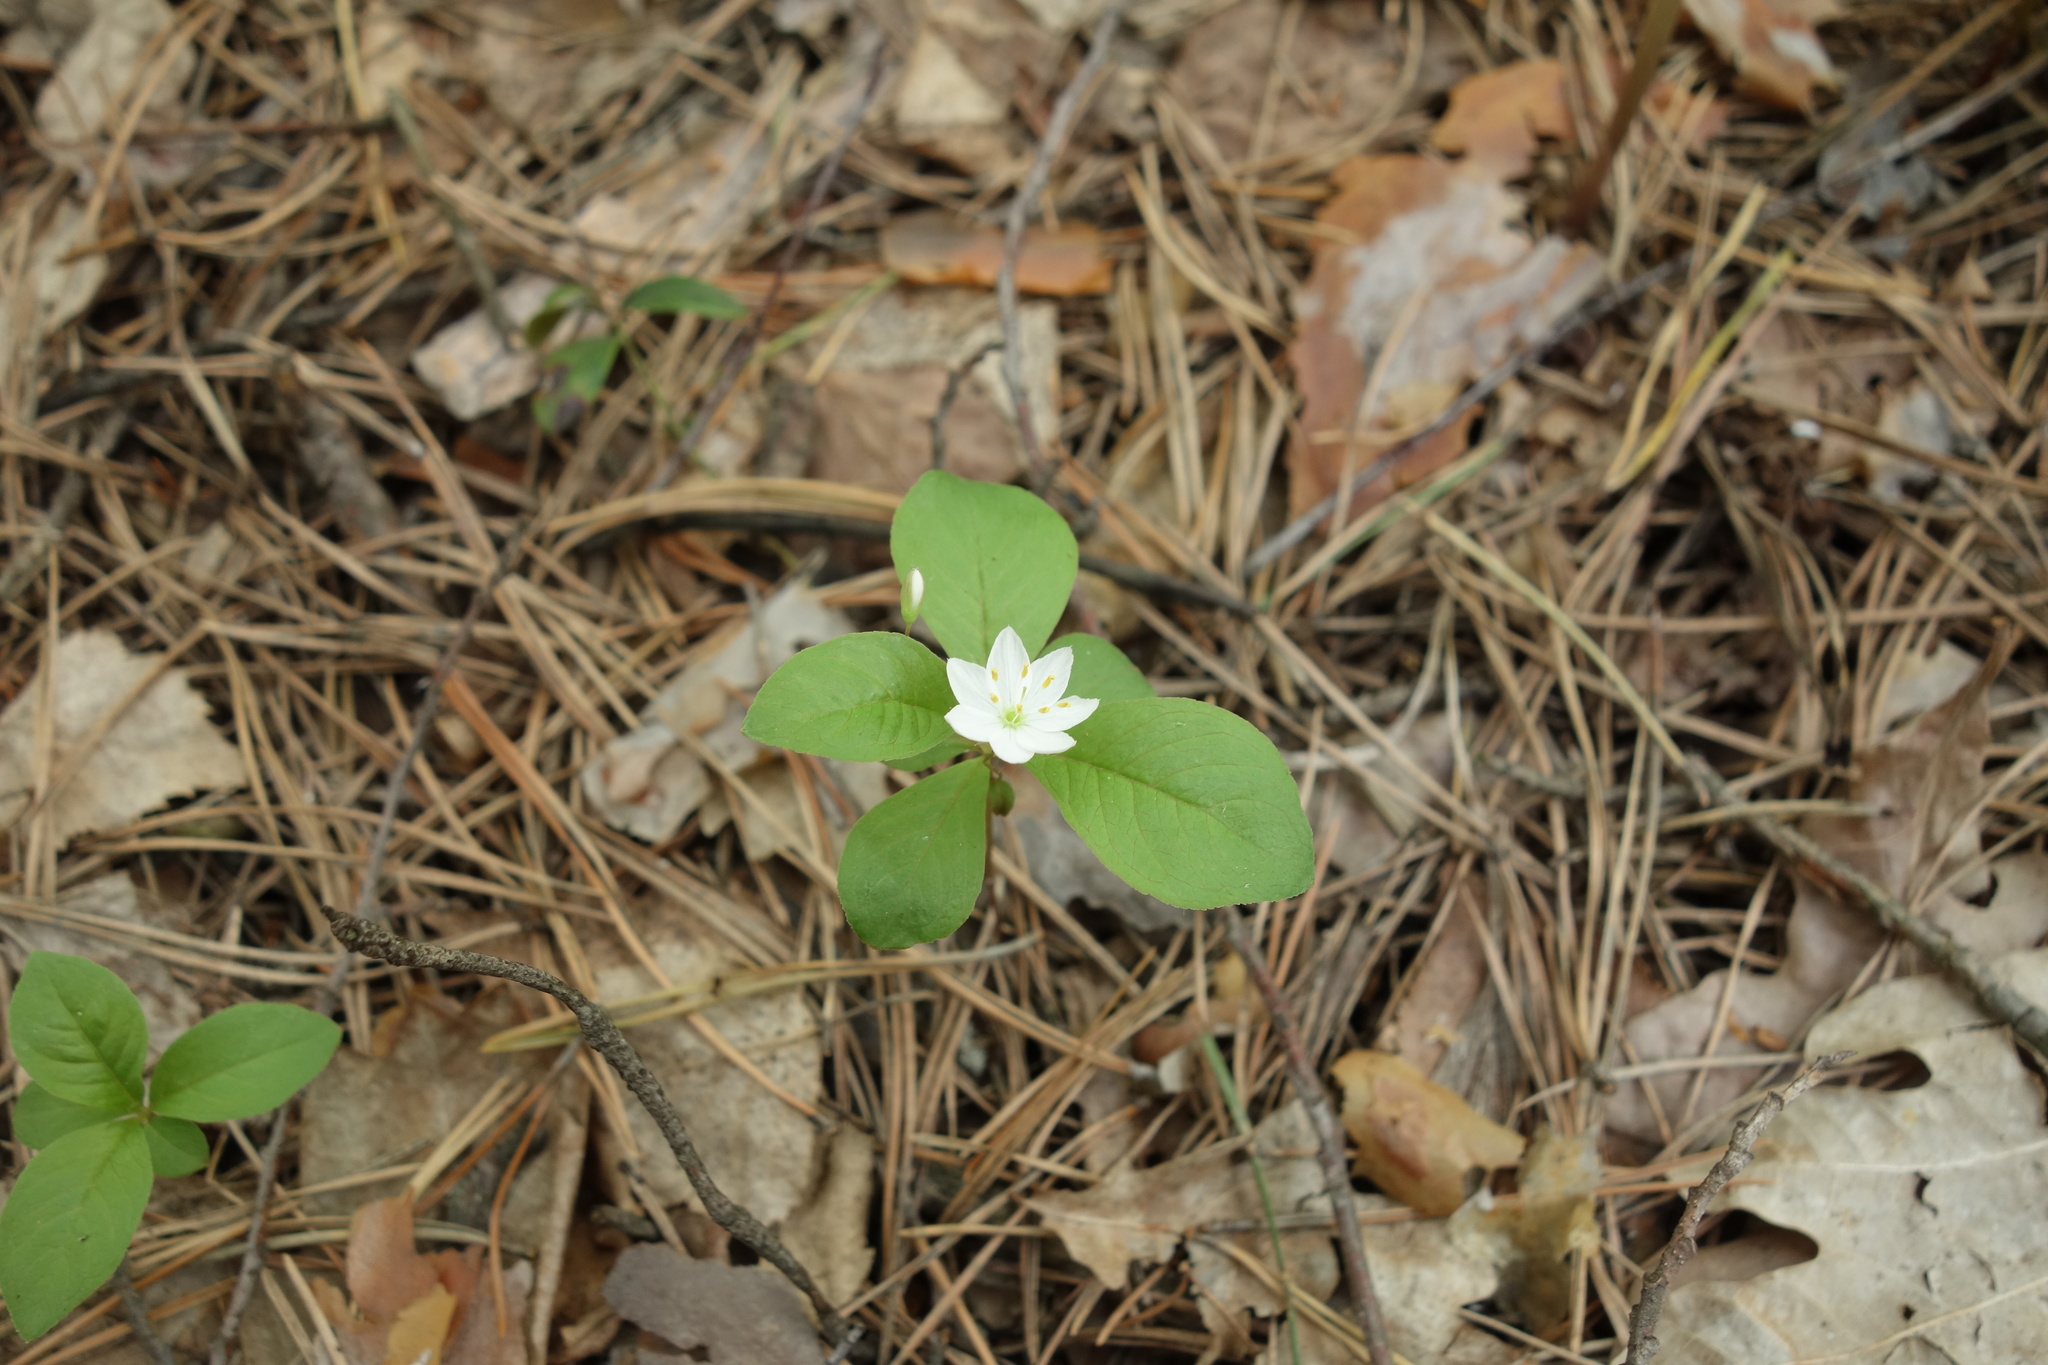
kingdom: Plantae
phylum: Tracheophyta
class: Magnoliopsida
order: Ericales
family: Primulaceae
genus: Lysimachia
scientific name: Lysimachia europaea
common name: Arctic starflower
